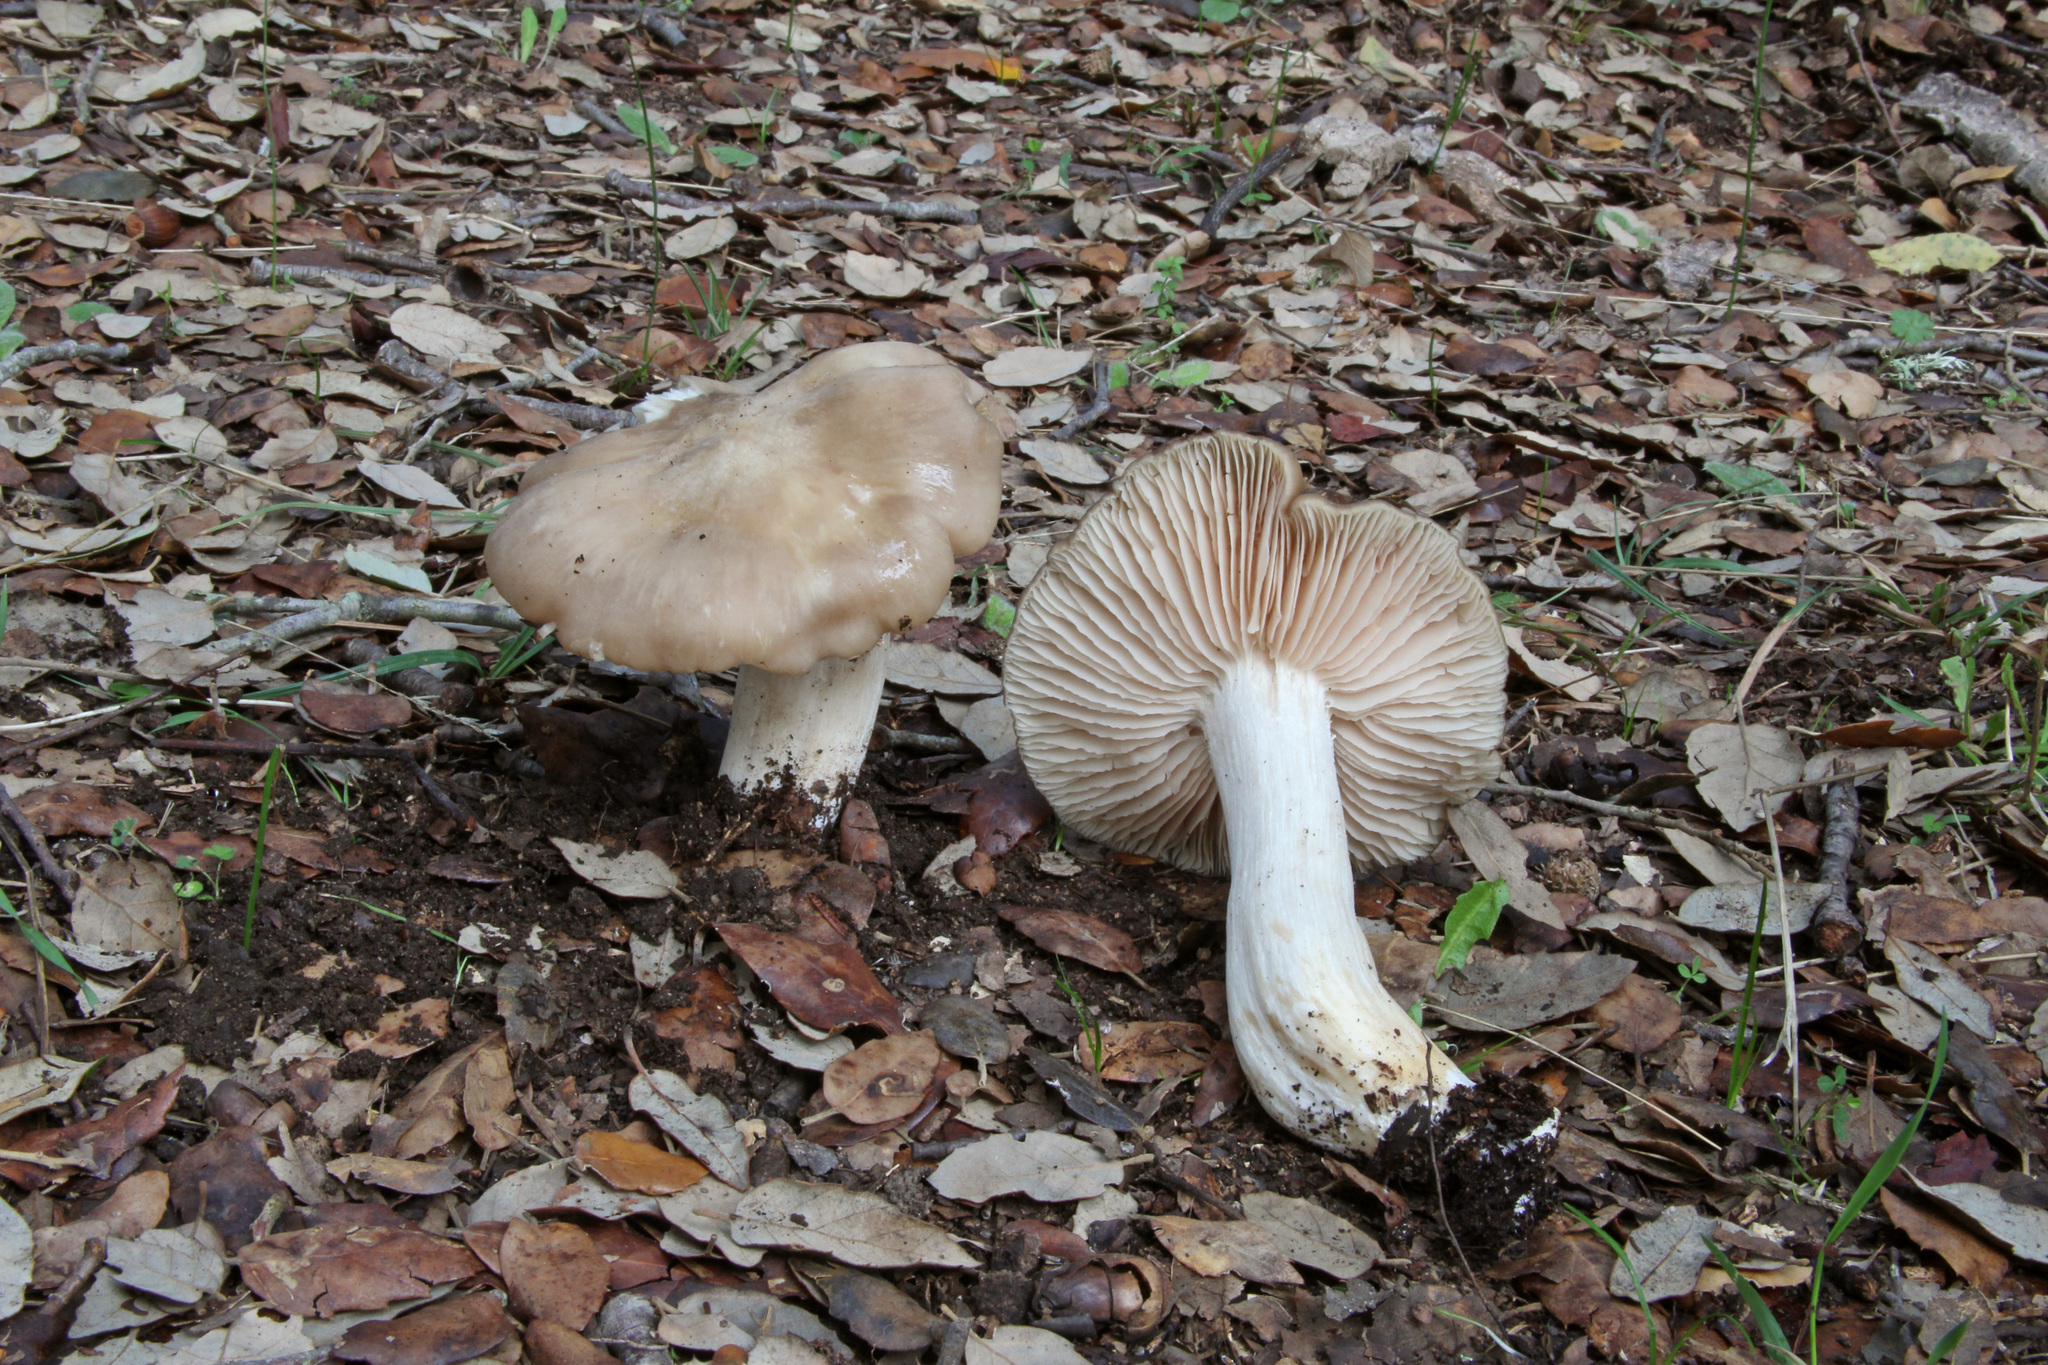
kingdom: Fungi
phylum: Basidiomycota
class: Agaricomycetes
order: Agaricales
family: Entolomataceae
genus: Entoloma
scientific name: Entoloma lividoalbum
